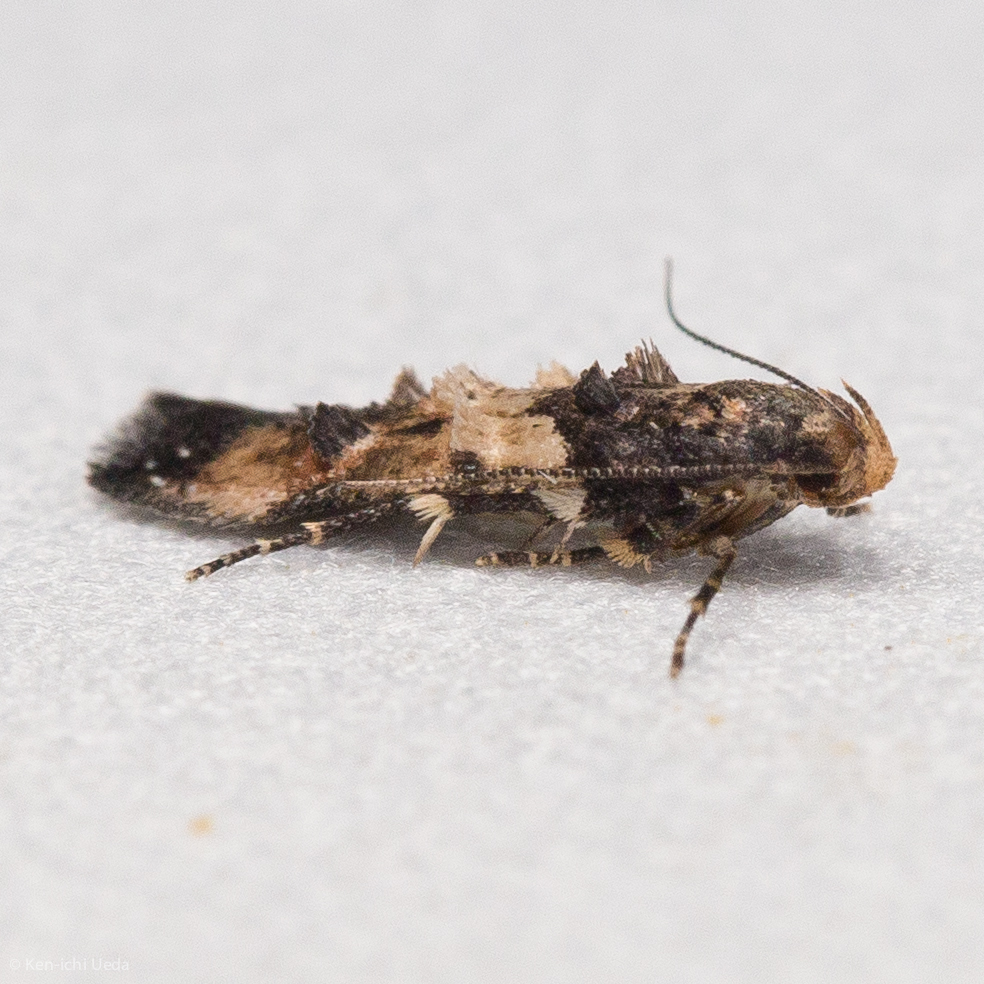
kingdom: Animalia
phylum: Arthropoda
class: Insecta
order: Lepidoptera
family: Cosmopterigidae
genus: Walshia
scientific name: Walshia miscecolorella
